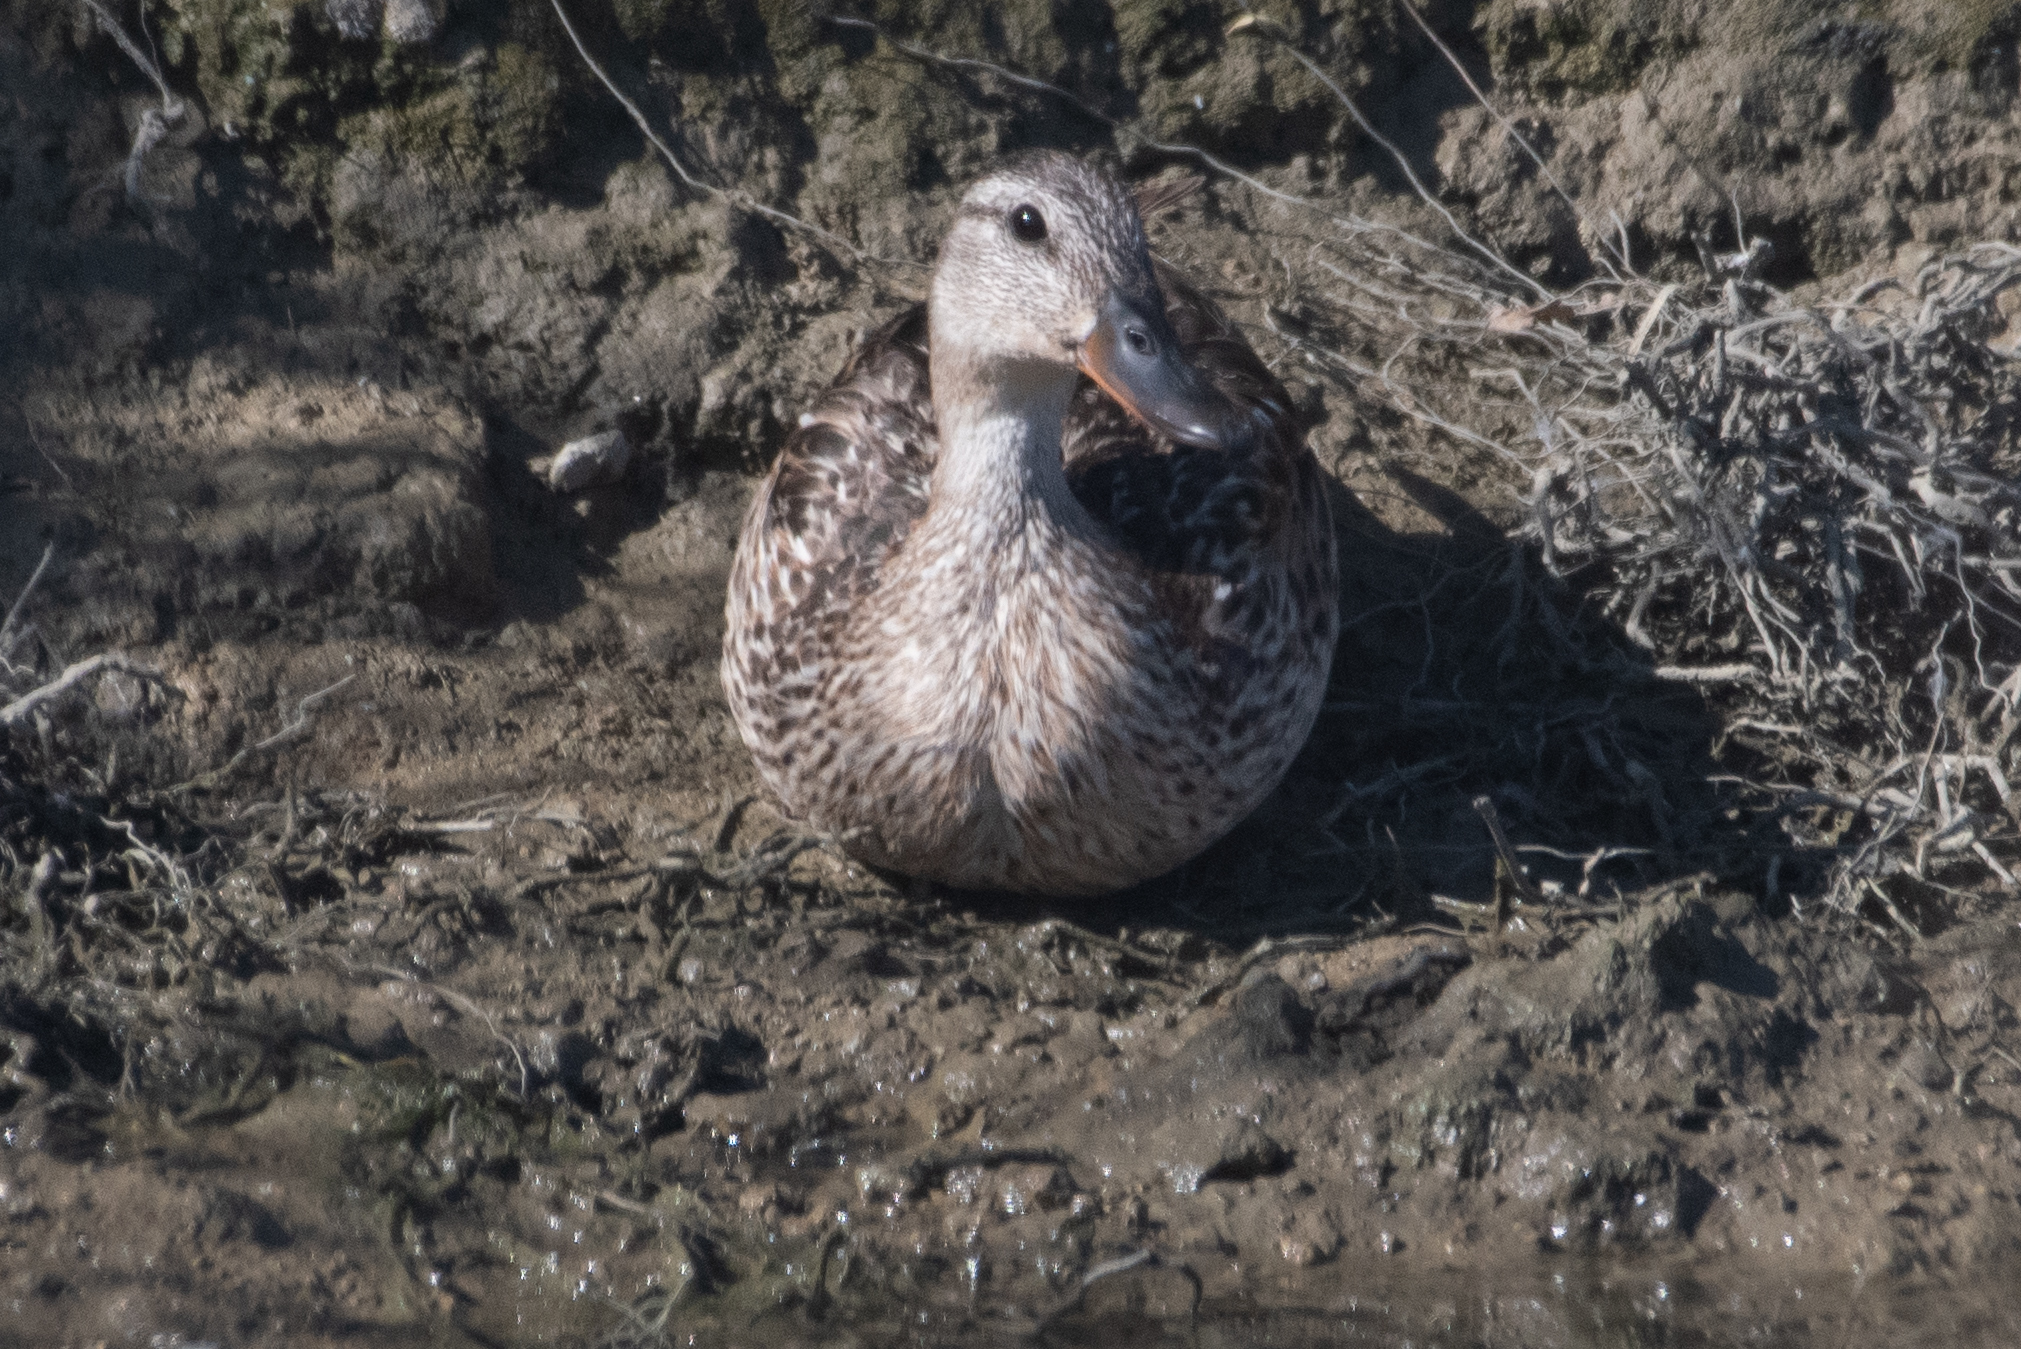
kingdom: Animalia
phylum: Chordata
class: Aves
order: Anseriformes
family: Anatidae
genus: Anas
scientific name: Anas platyrhynchos
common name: Mallard
